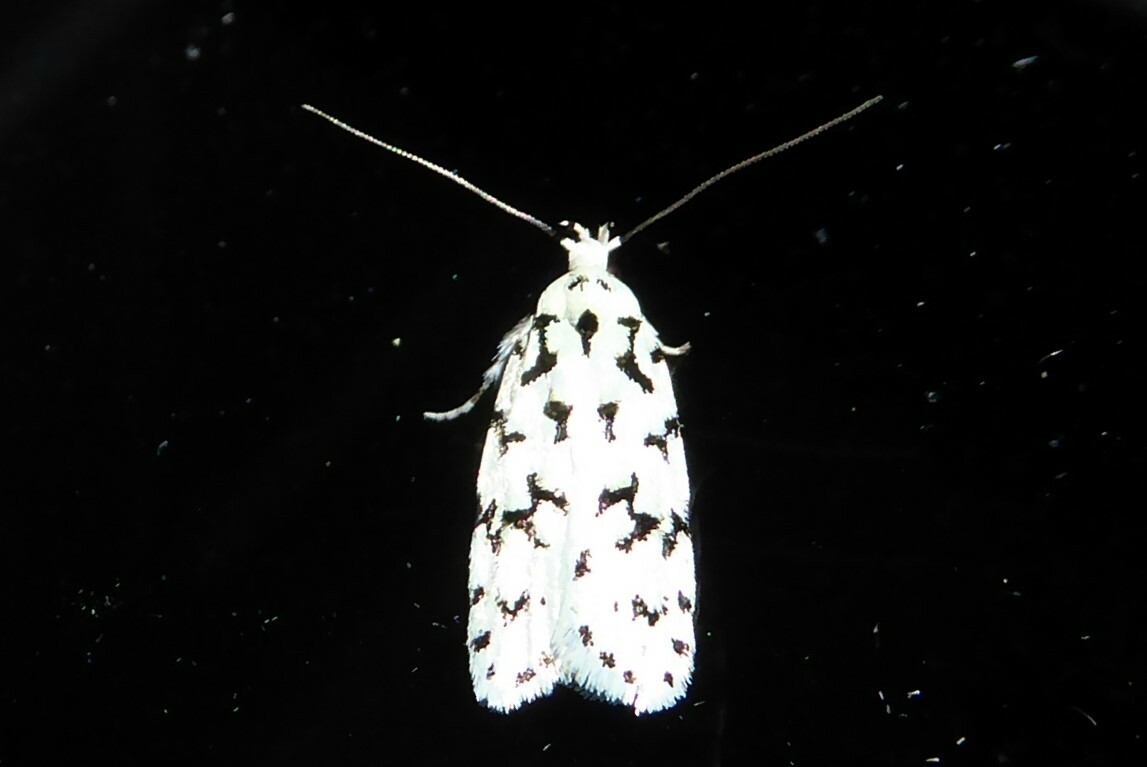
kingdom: Animalia
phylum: Arthropoda
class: Insecta
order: Lepidoptera
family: Oecophoridae
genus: Izatha
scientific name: Izatha huttoni
